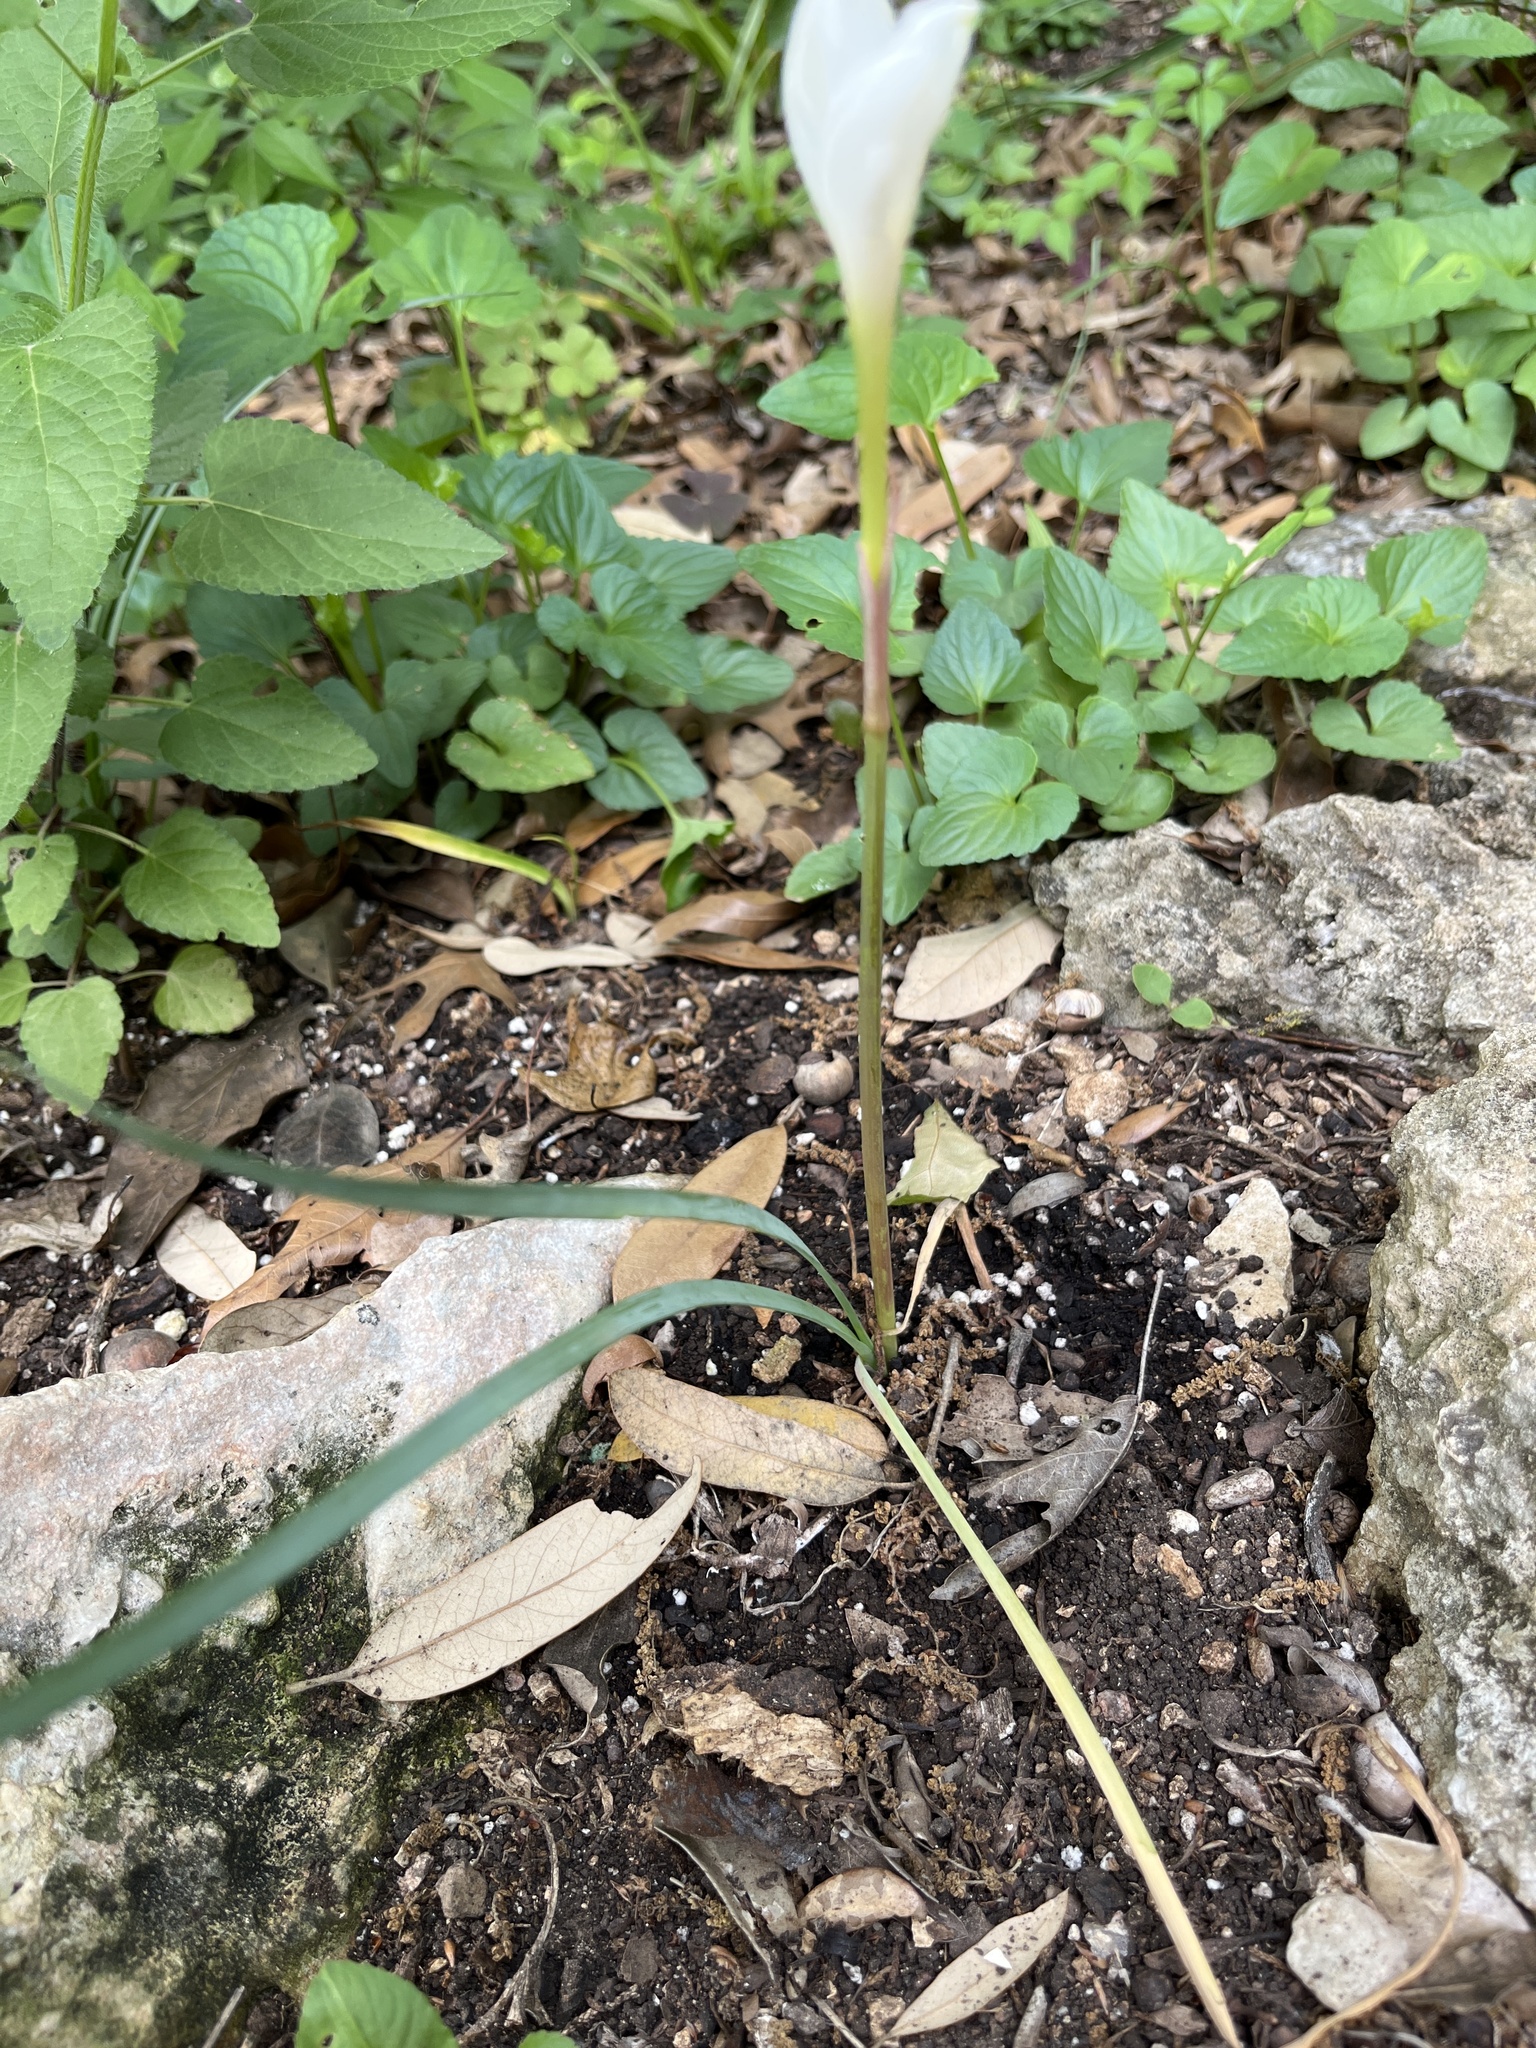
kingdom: Plantae
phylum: Tracheophyta
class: Liliopsida
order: Asparagales
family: Amaryllidaceae
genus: Zephyranthes
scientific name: Zephyranthes drummondii
